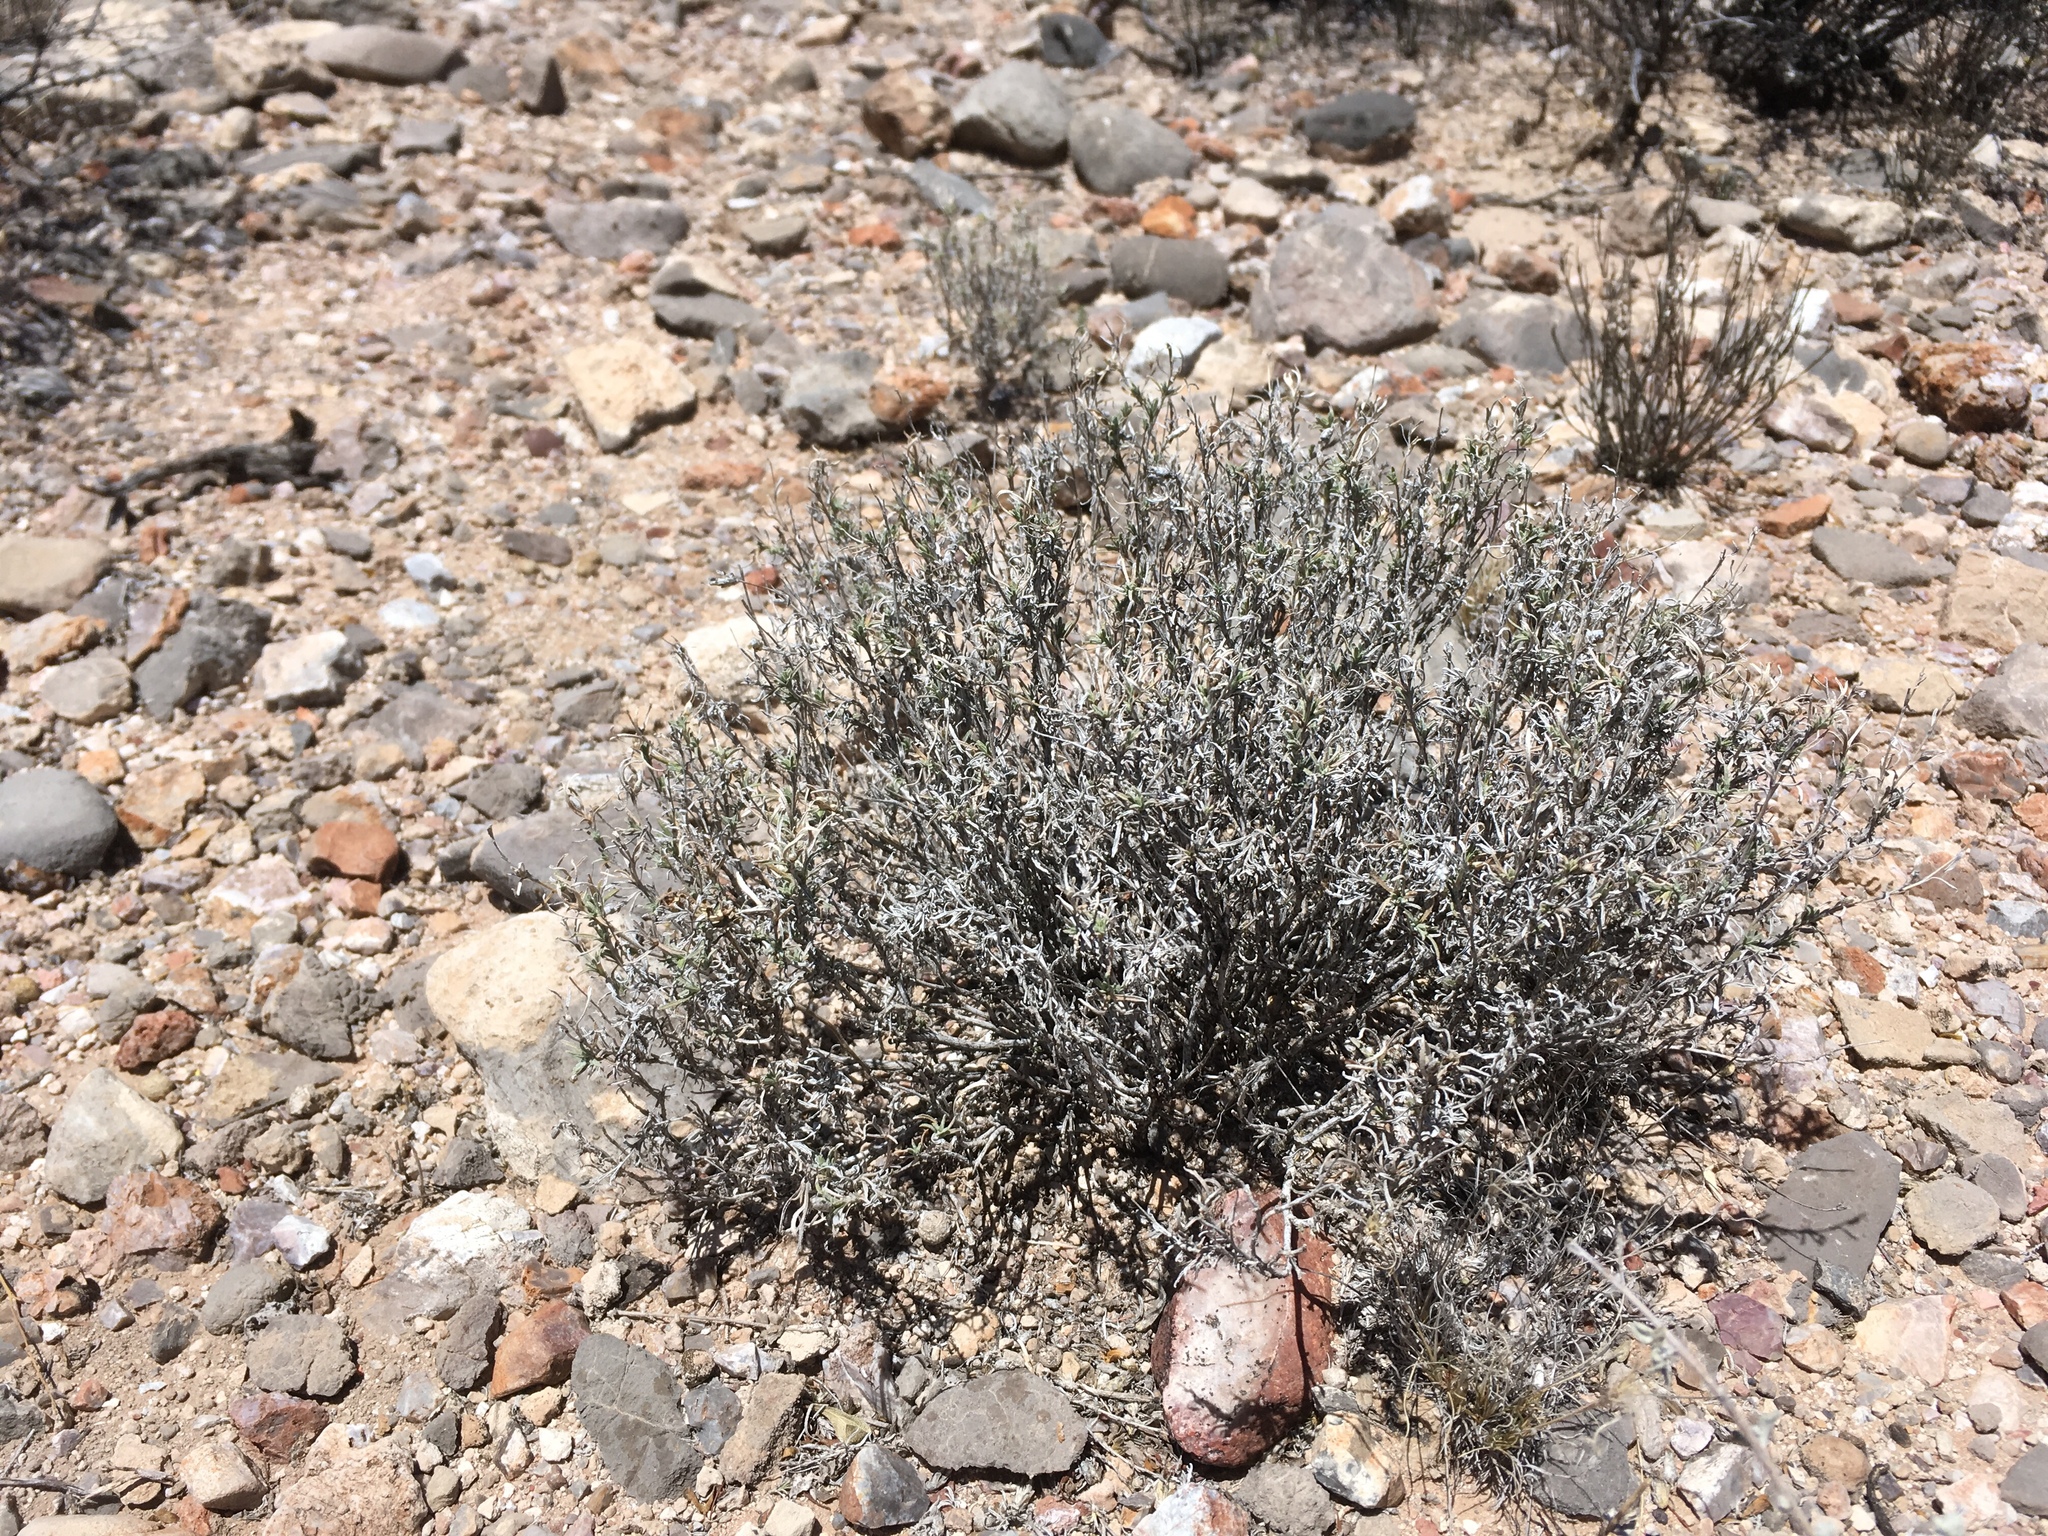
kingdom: Plantae
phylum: Tracheophyta
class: Magnoliopsida
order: Asterales
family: Asteraceae
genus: Zinnia
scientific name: Zinnia acerosa
